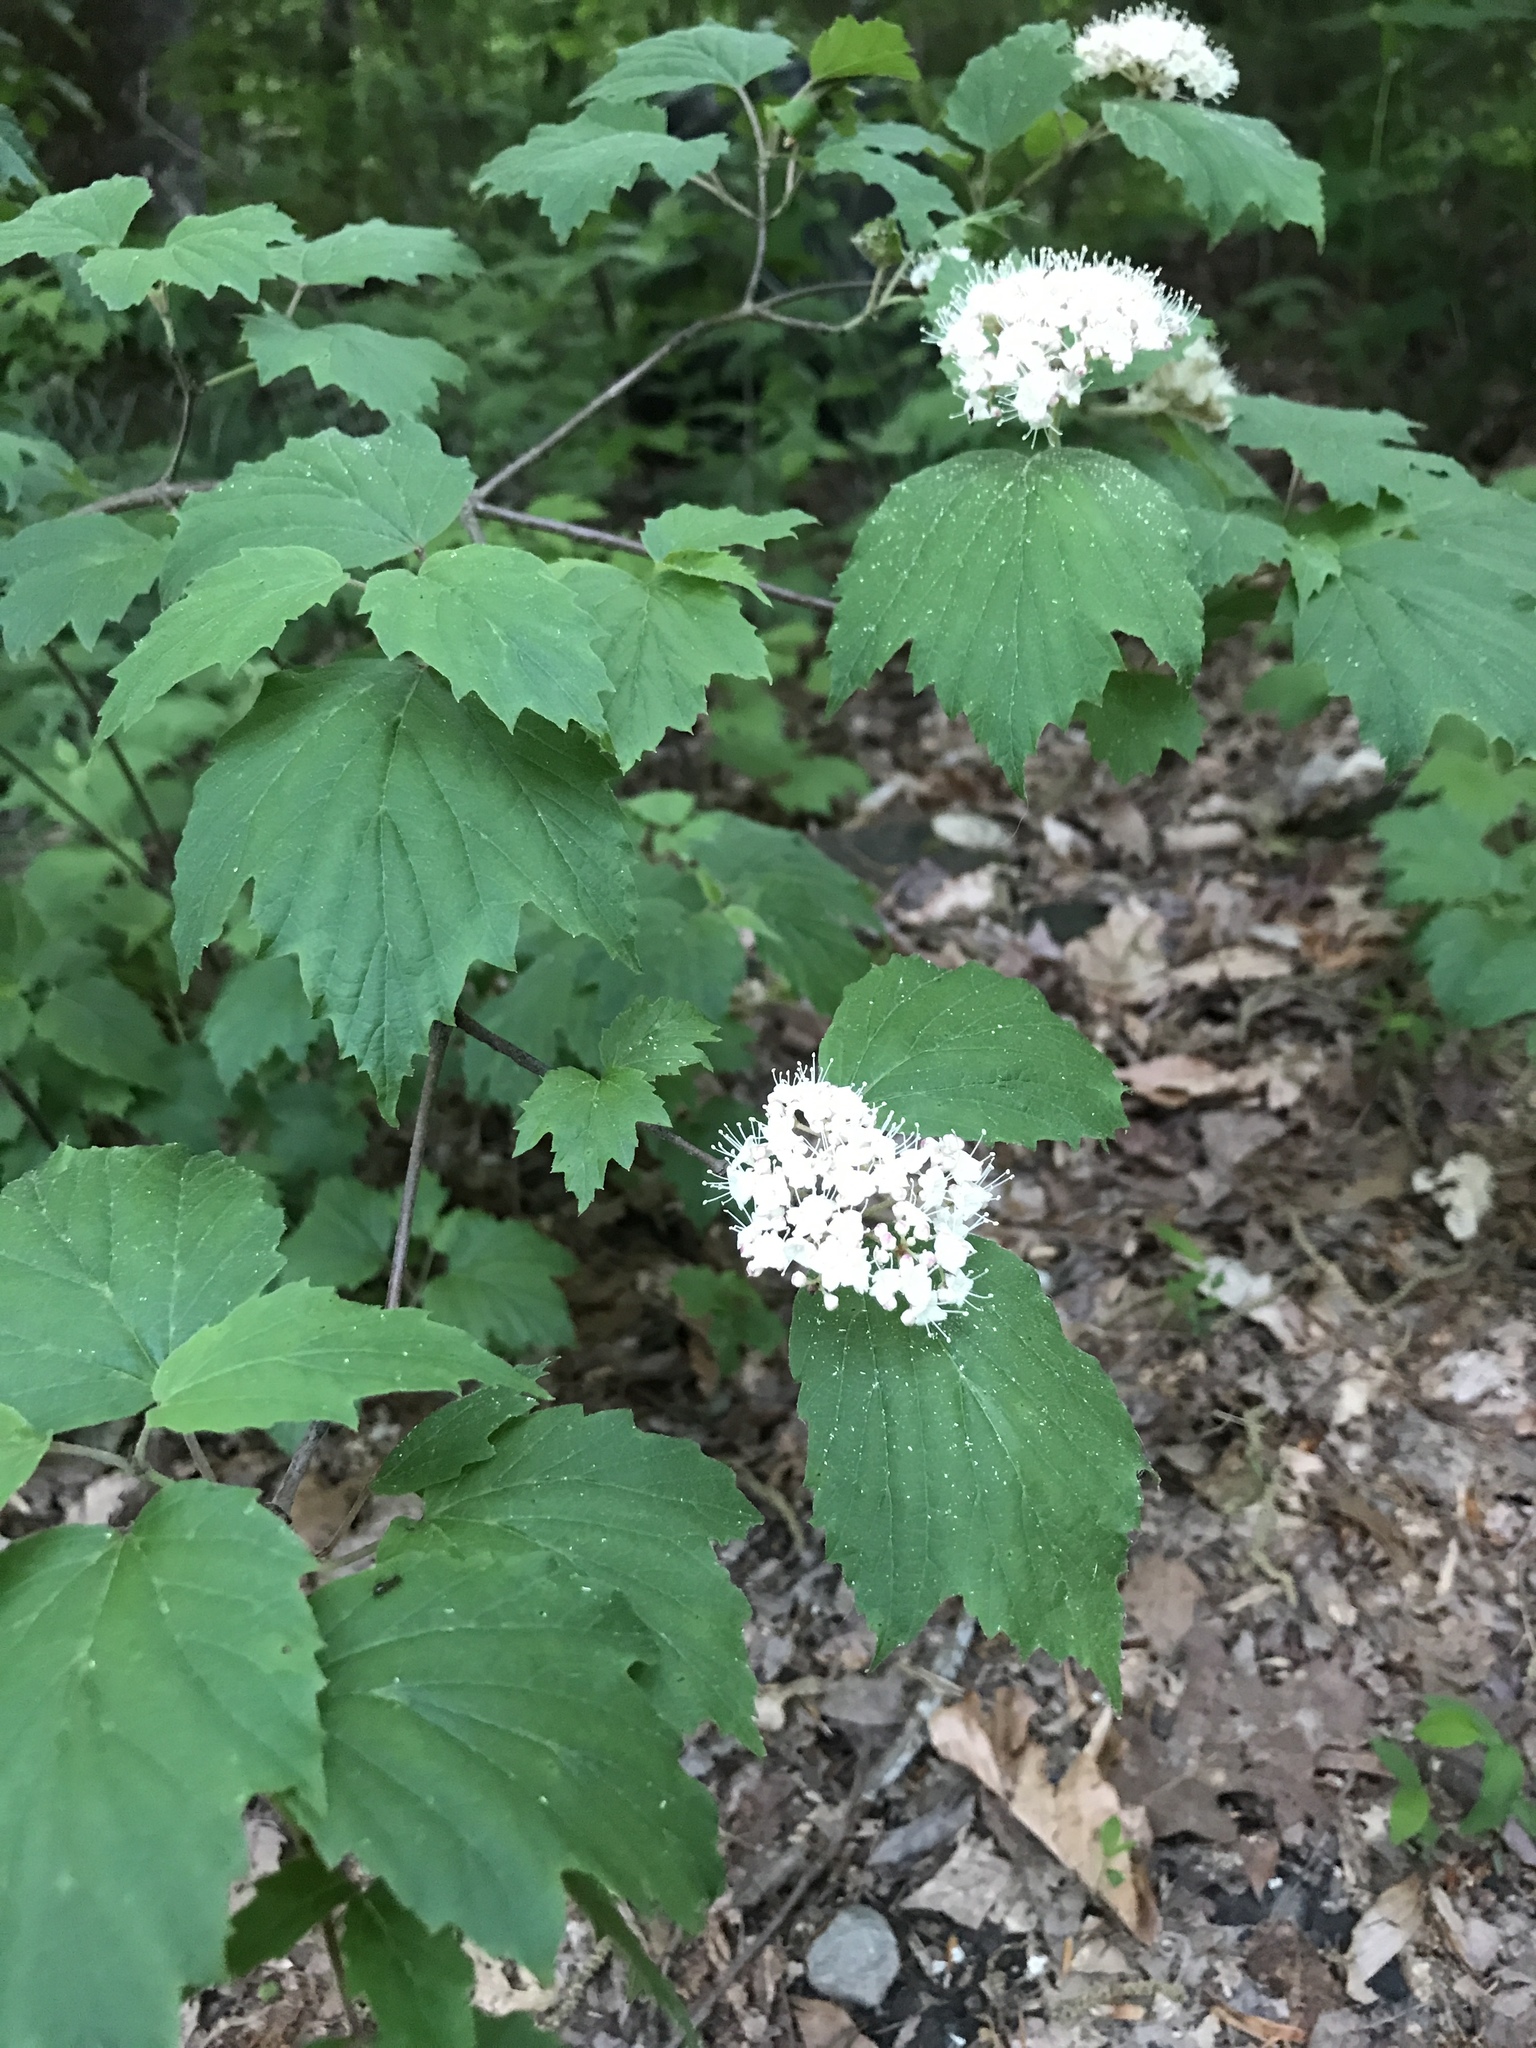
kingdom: Plantae
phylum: Tracheophyta
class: Magnoliopsida
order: Dipsacales
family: Viburnaceae
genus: Viburnum
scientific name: Viburnum acerifolium
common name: Dockmackie
